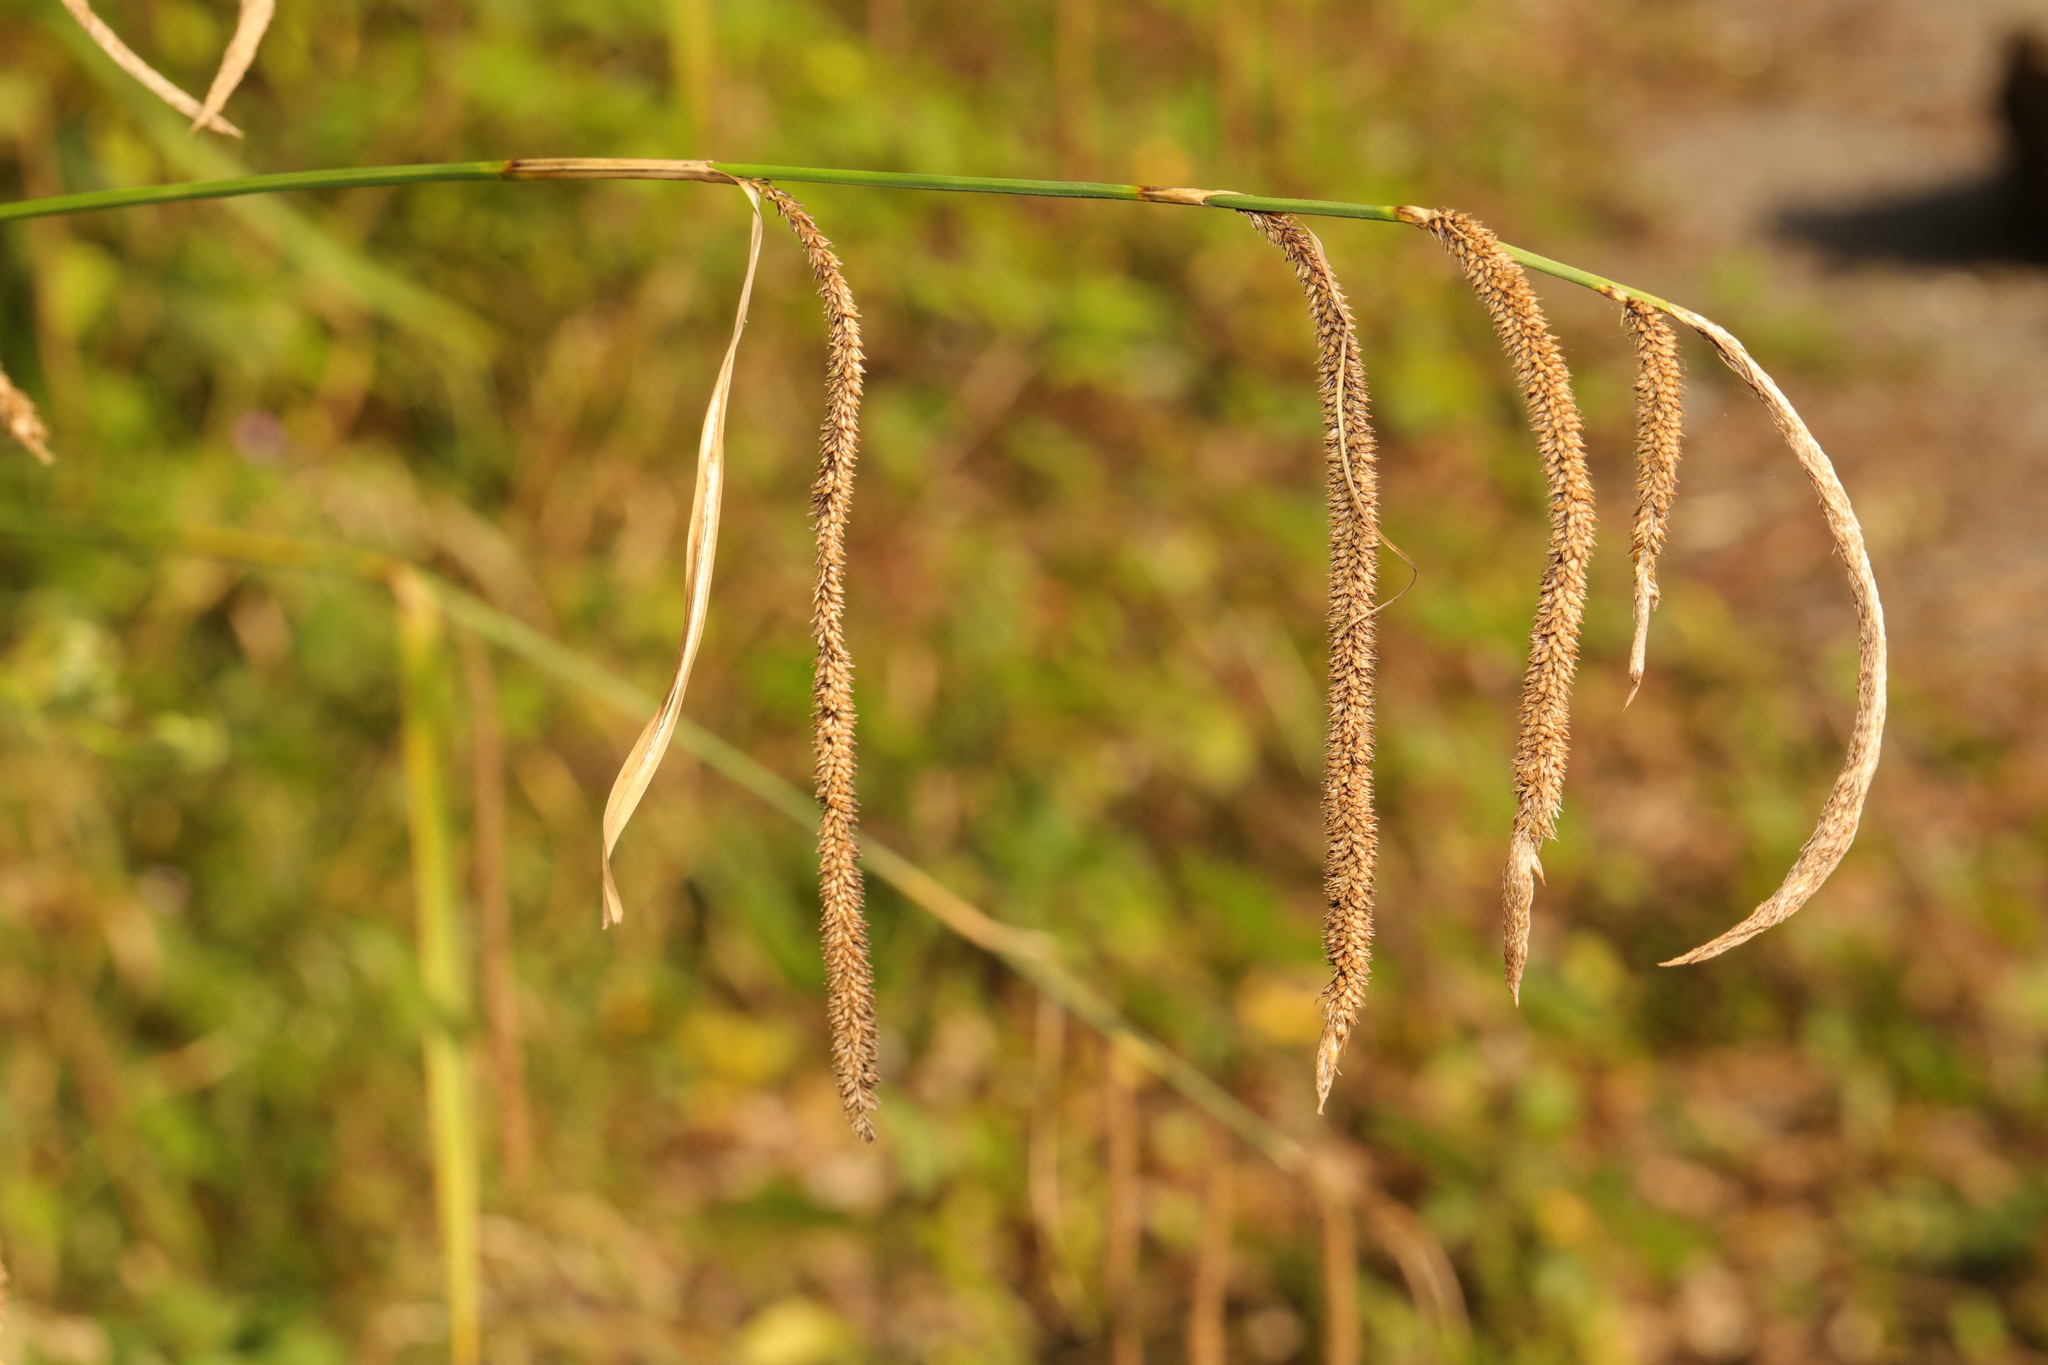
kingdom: Plantae
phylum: Tracheophyta
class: Liliopsida
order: Poales
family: Cyperaceae
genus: Carex
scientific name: Carex pendula
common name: Pendulous sedge
